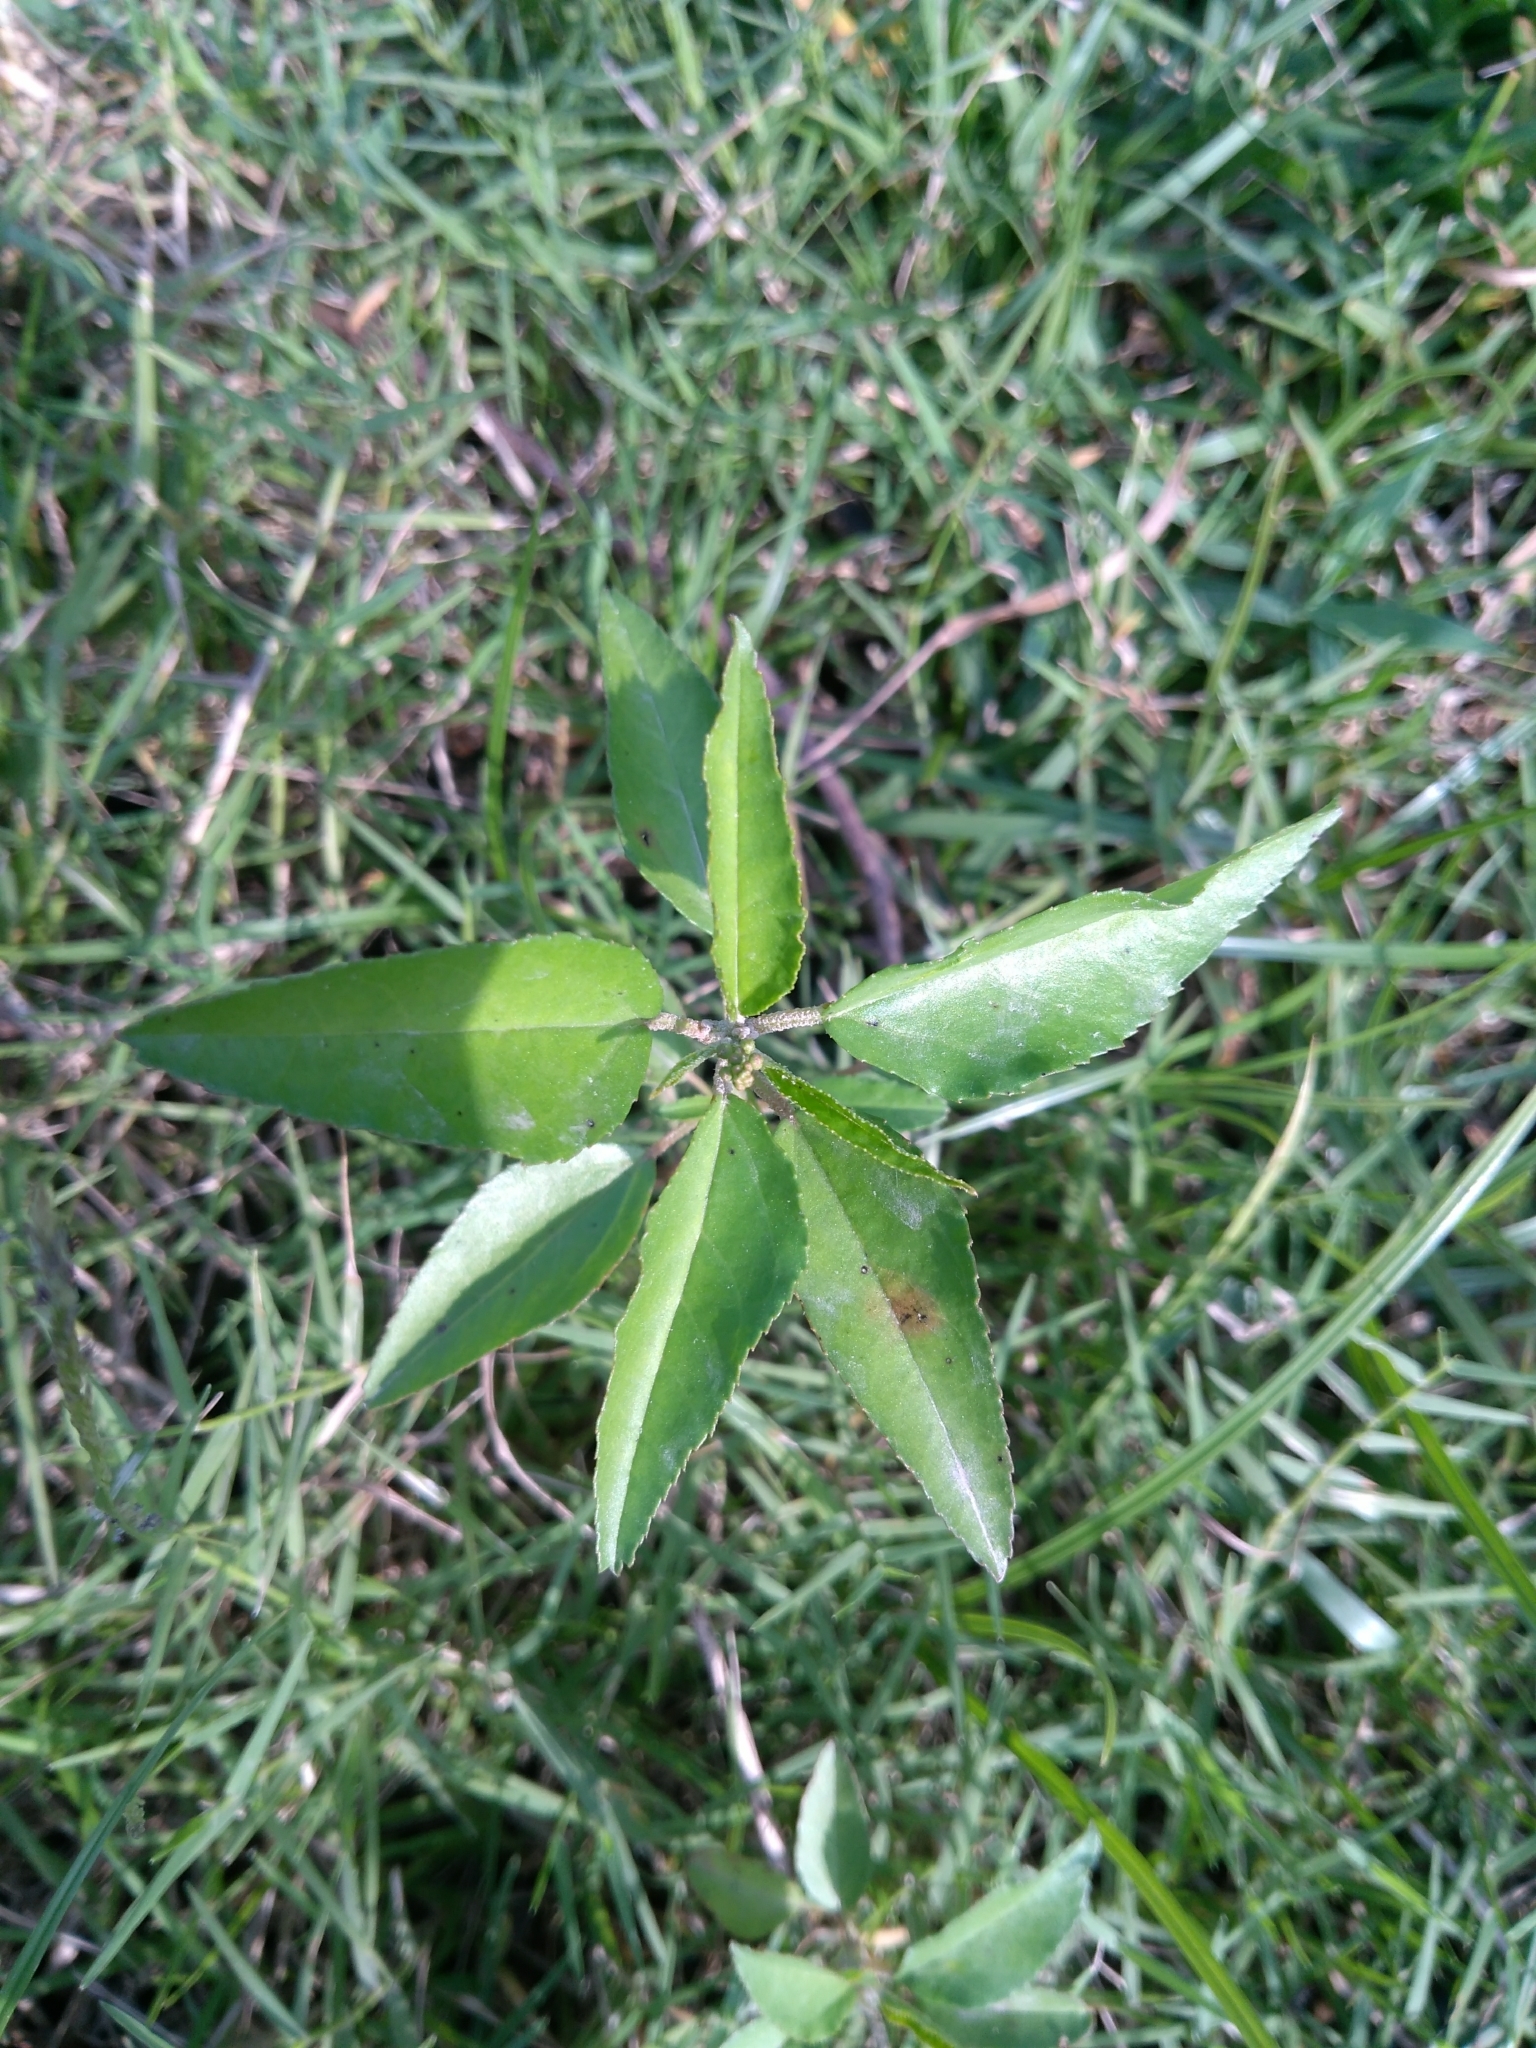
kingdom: Plantae
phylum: Tracheophyta
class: Magnoliopsida
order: Malpighiales
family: Euphorbiaceae
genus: Croton
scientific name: Croton bonplandianus
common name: Bonpland's croton
